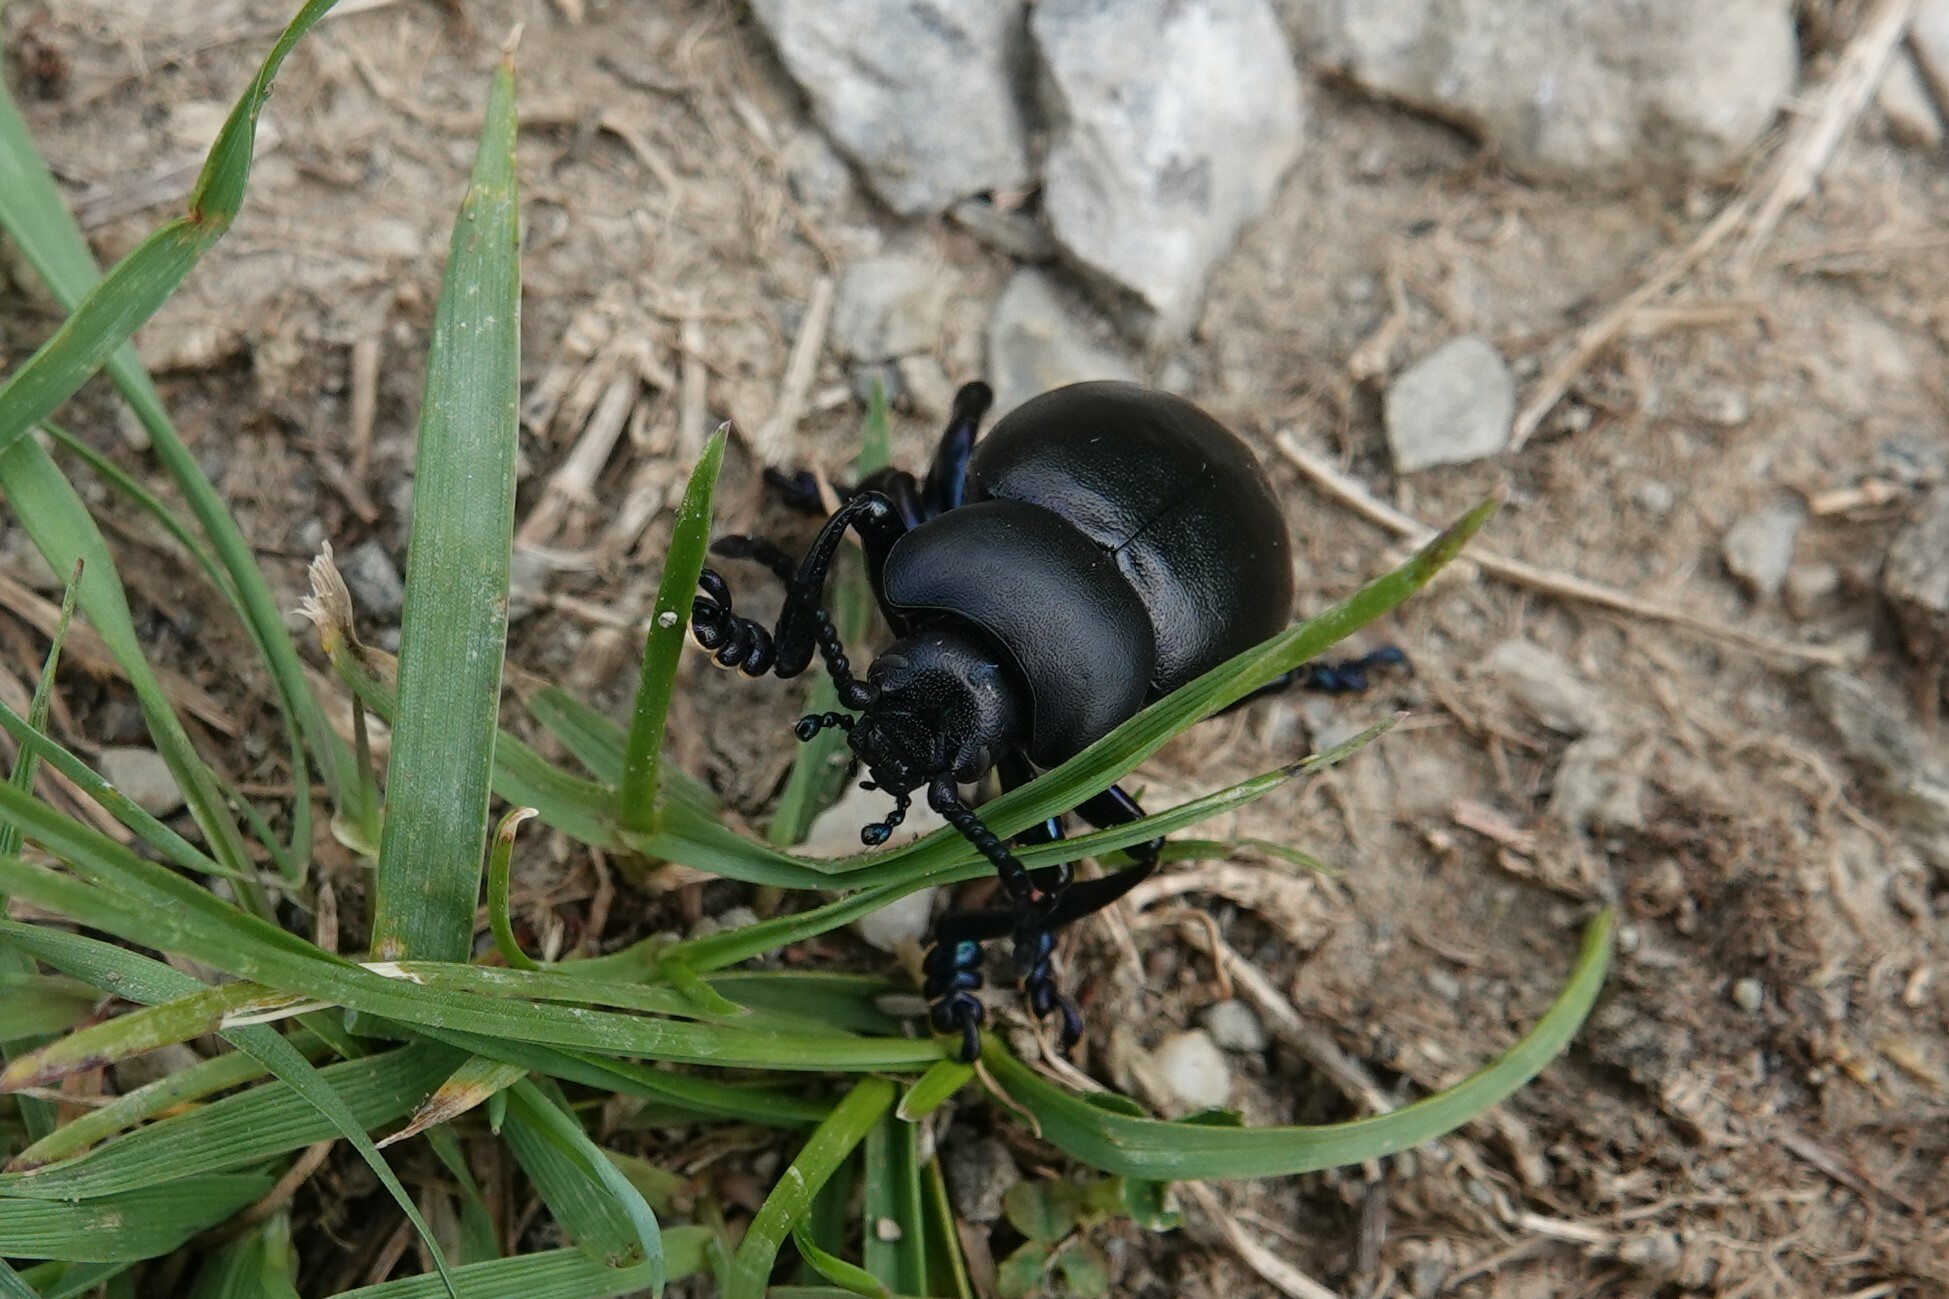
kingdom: Animalia
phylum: Arthropoda
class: Insecta
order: Coleoptera
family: Chrysomelidae
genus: Timarcha
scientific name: Timarcha tenebricosa
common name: Bloody-nosed beetle
